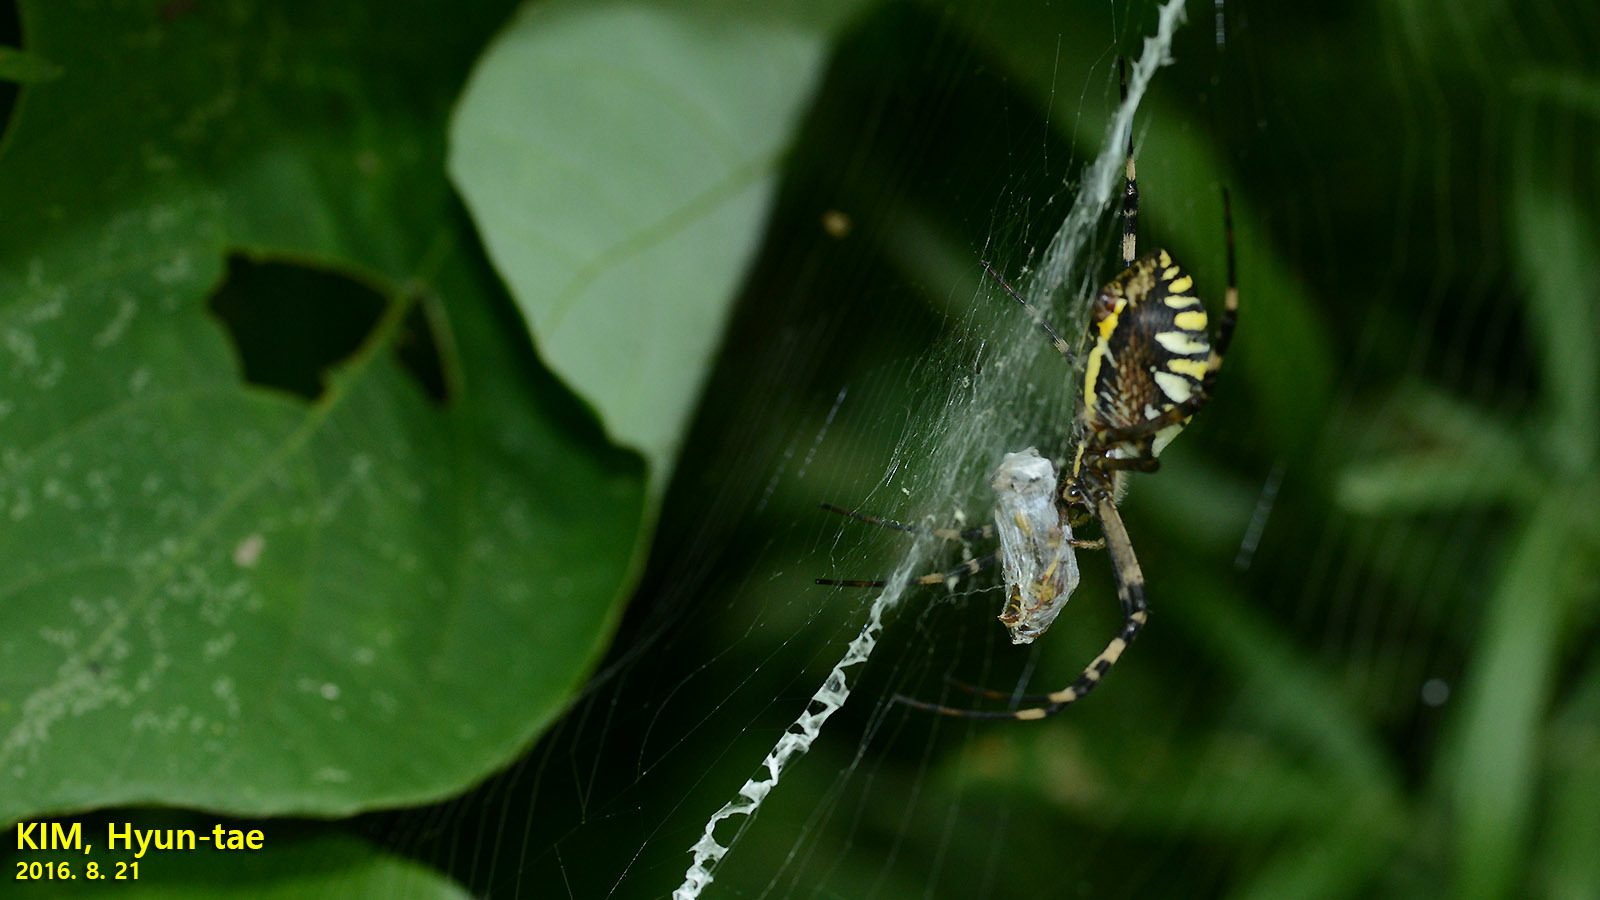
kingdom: Animalia
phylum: Arthropoda
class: Arachnida
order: Araneae
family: Araneidae
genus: Argiope
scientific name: Argiope bruennichi
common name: Wasp spider
